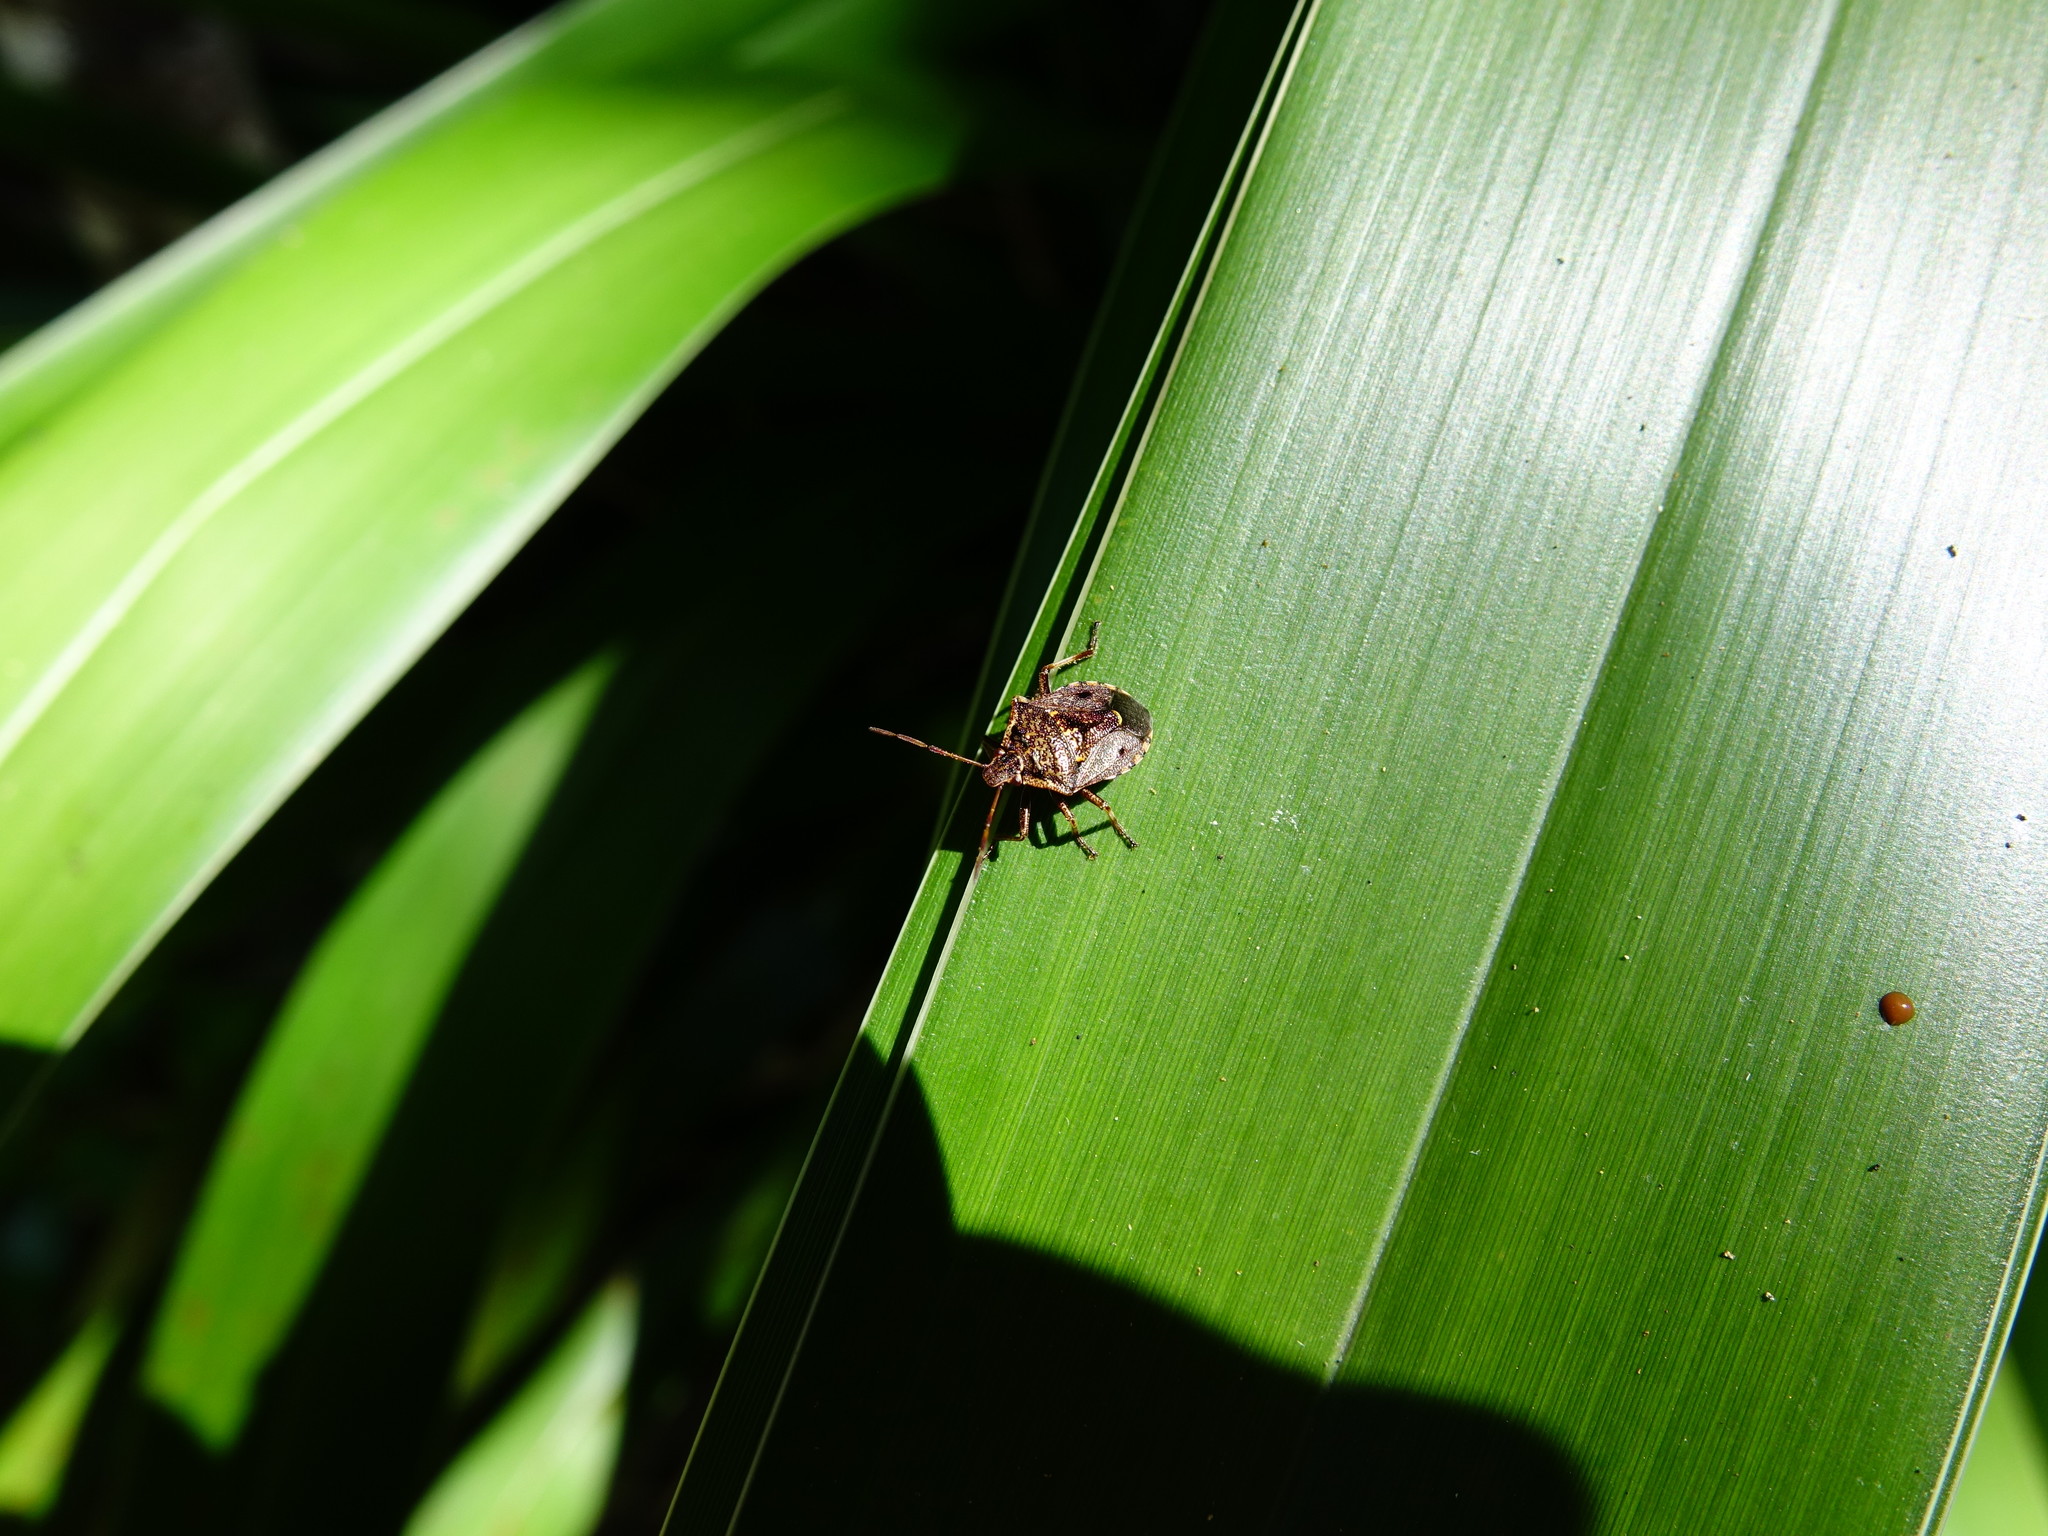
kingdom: Animalia
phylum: Arthropoda
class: Insecta
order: Hemiptera
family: Pentatomidae
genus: Cermatulus
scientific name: Cermatulus nasalis
